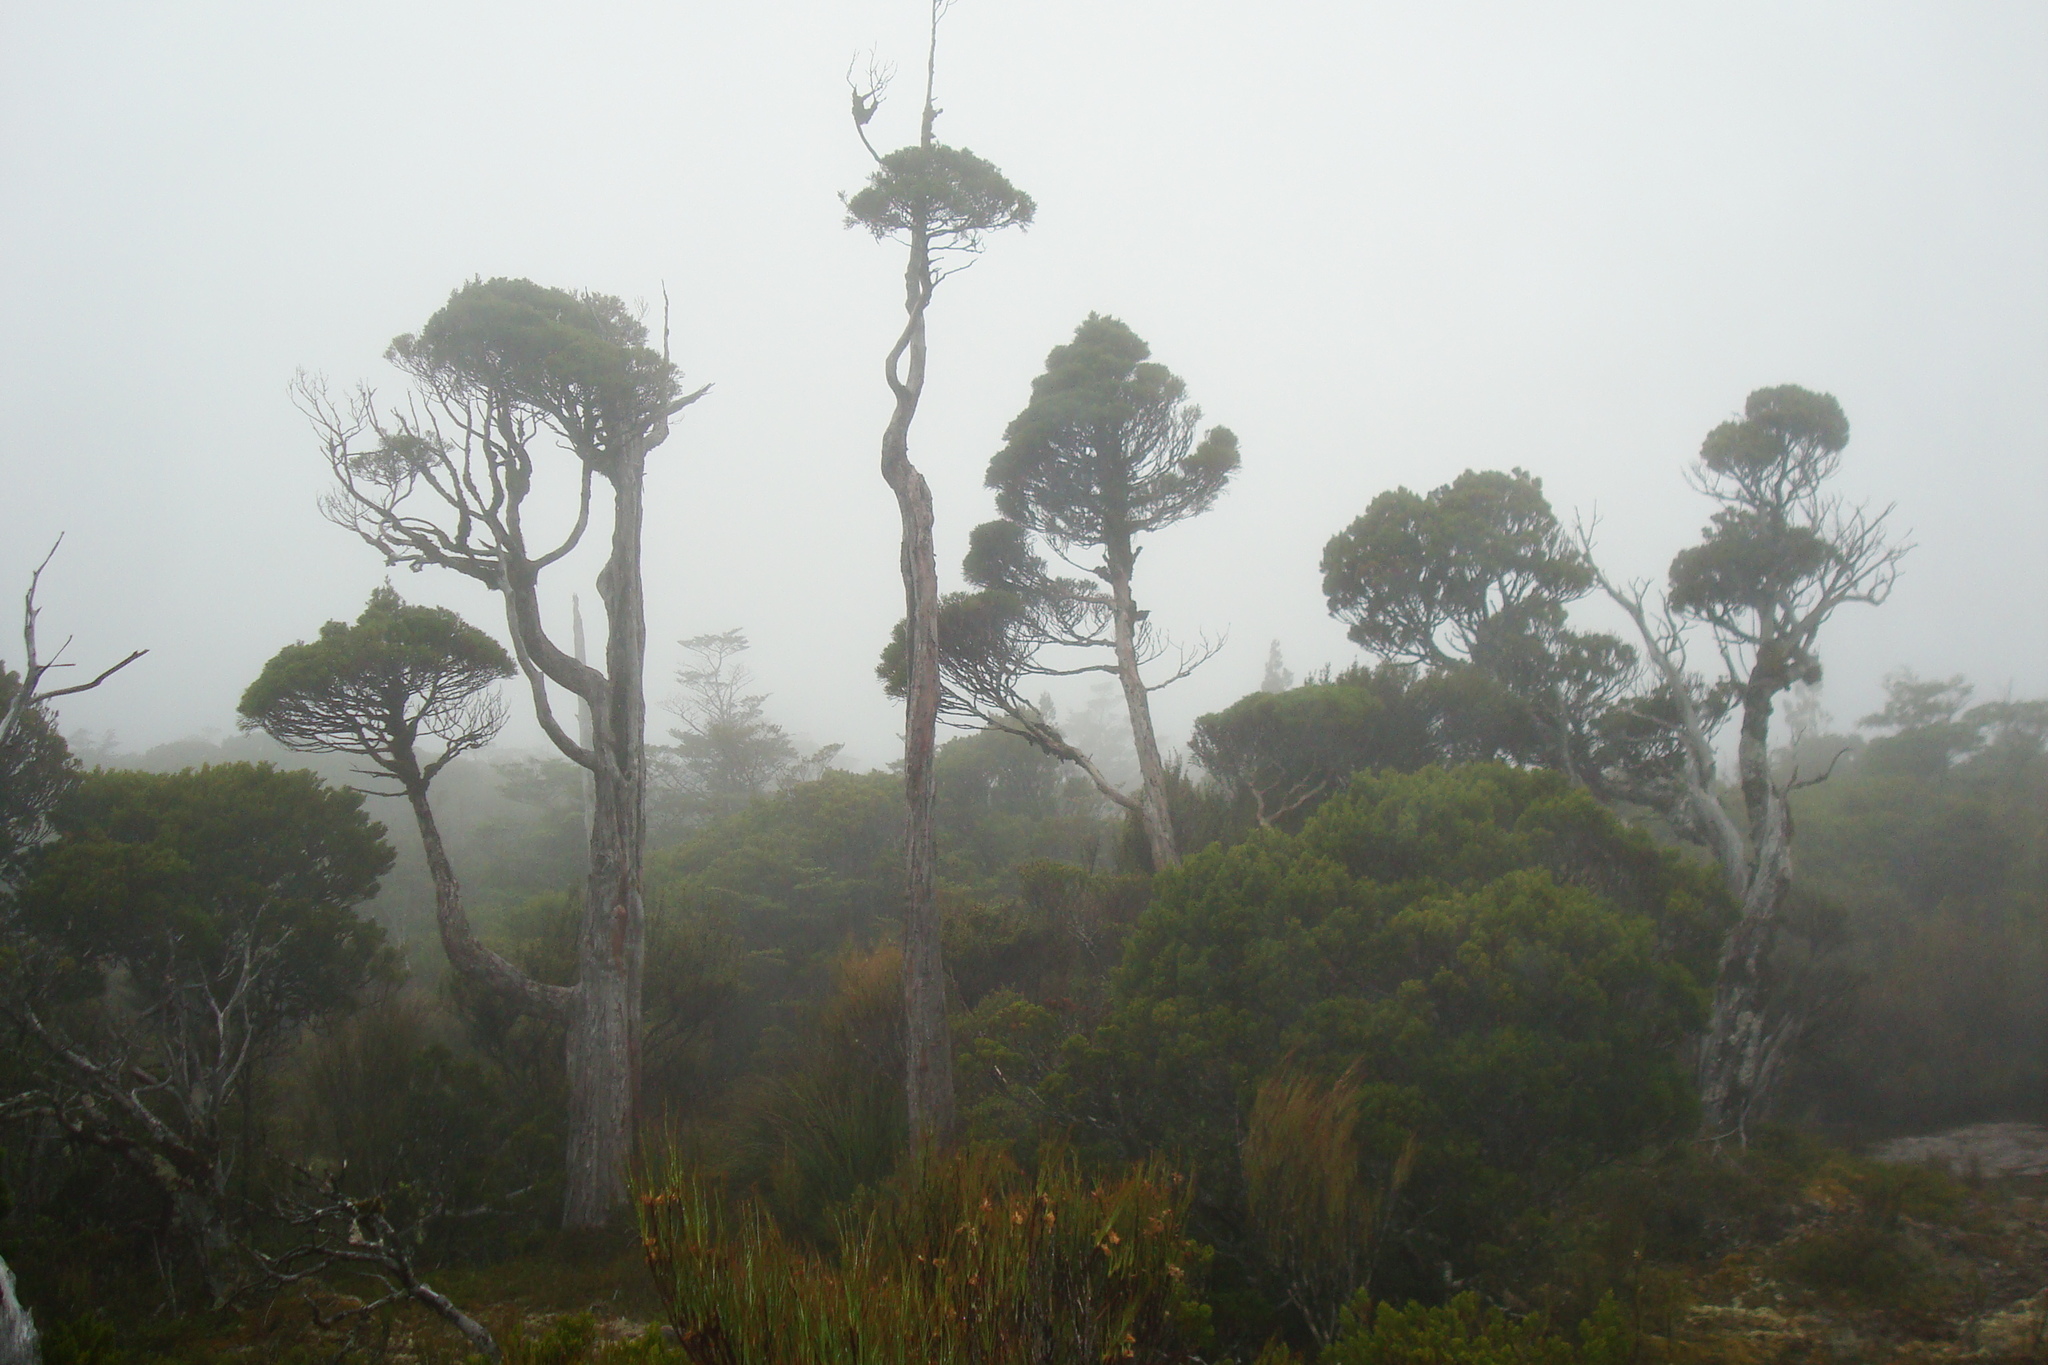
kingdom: Plantae
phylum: Tracheophyta
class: Pinopsida
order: Pinales
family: Cupressaceae
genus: Libocedrus
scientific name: Libocedrus bidwillii
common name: Cedar
